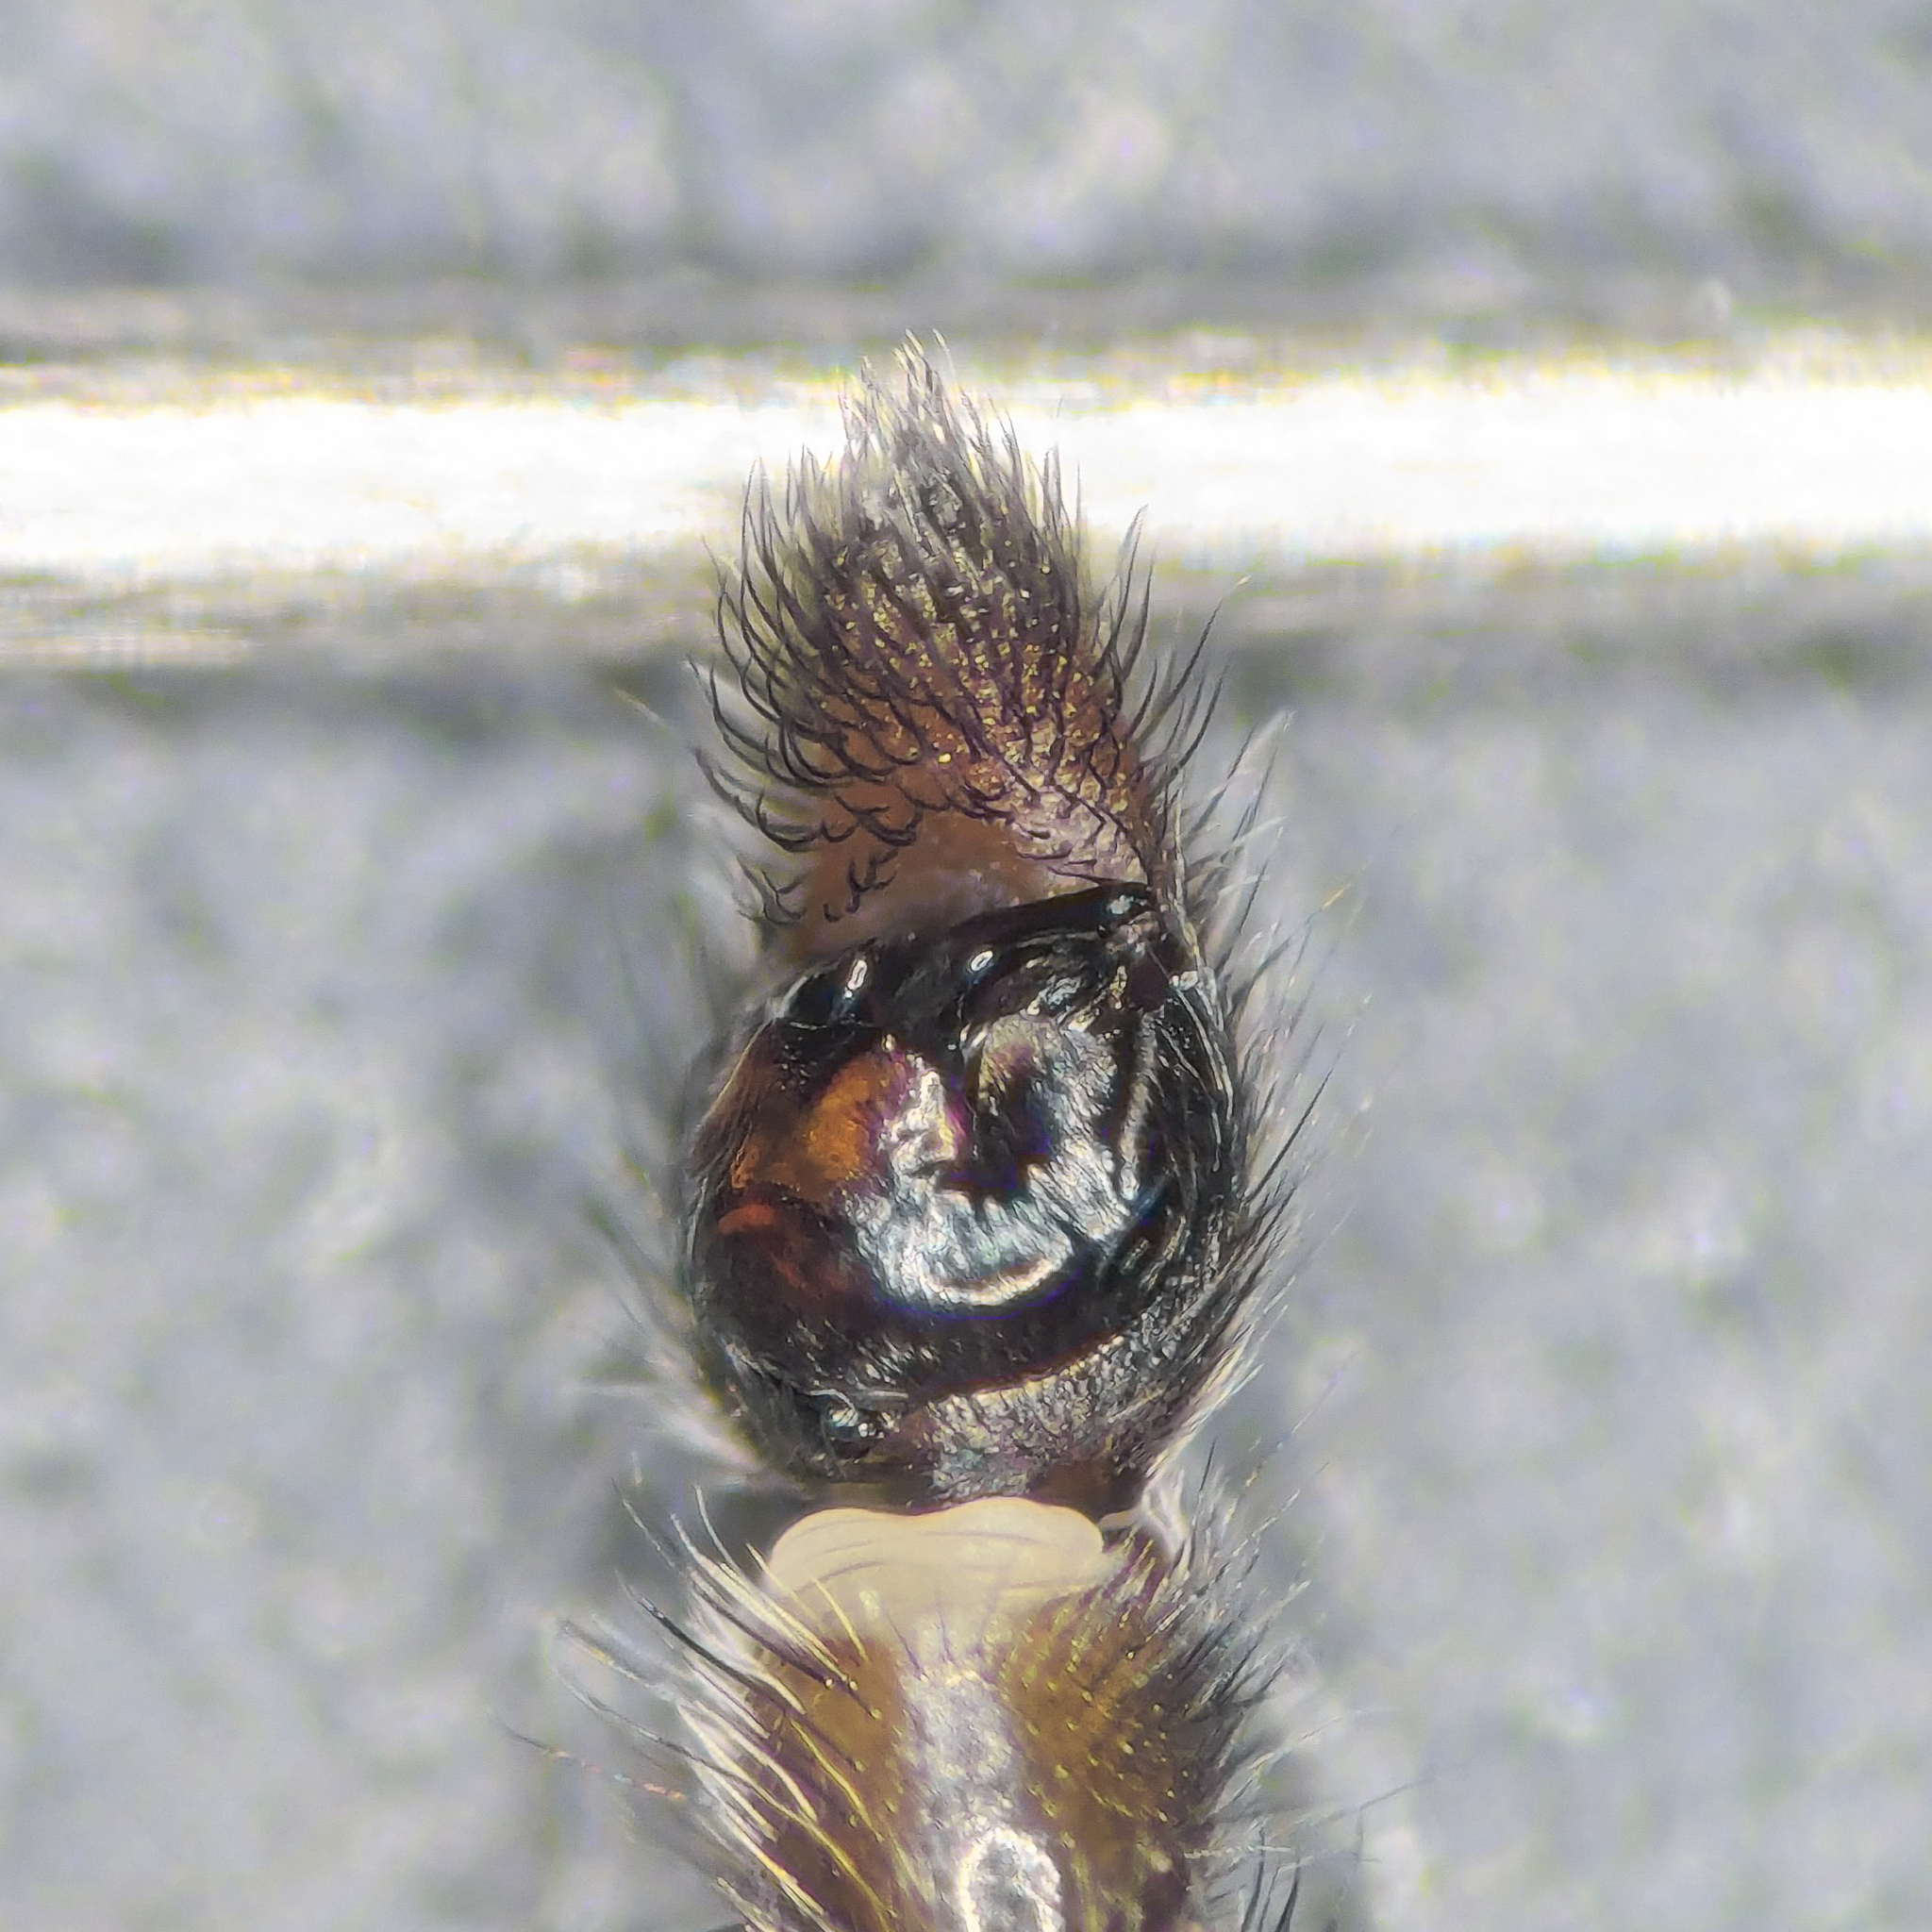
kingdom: Animalia
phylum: Arthropoda
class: Arachnida
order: Araneae
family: Lycosidae
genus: Anoteropsis
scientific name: Anoteropsis hilaris
